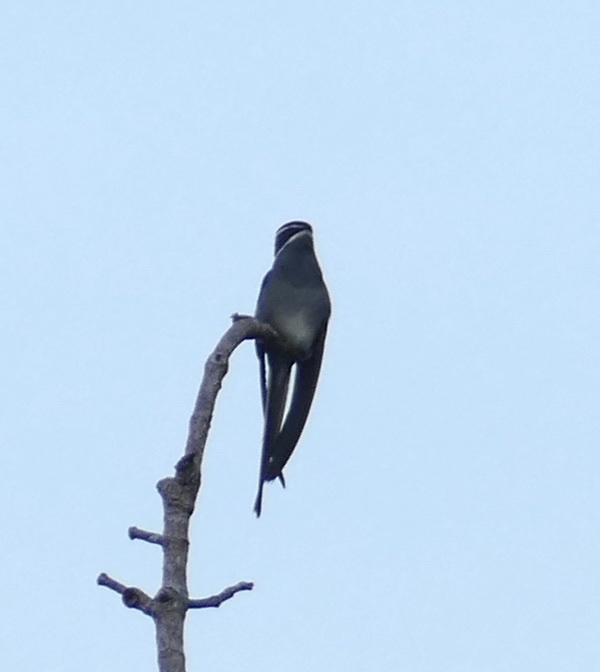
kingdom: Animalia
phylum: Chordata
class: Aves
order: Apodiformes
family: Hemiprocnidae
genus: Hemiprocne
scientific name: Hemiprocne mystacea
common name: Moustached treeswift
